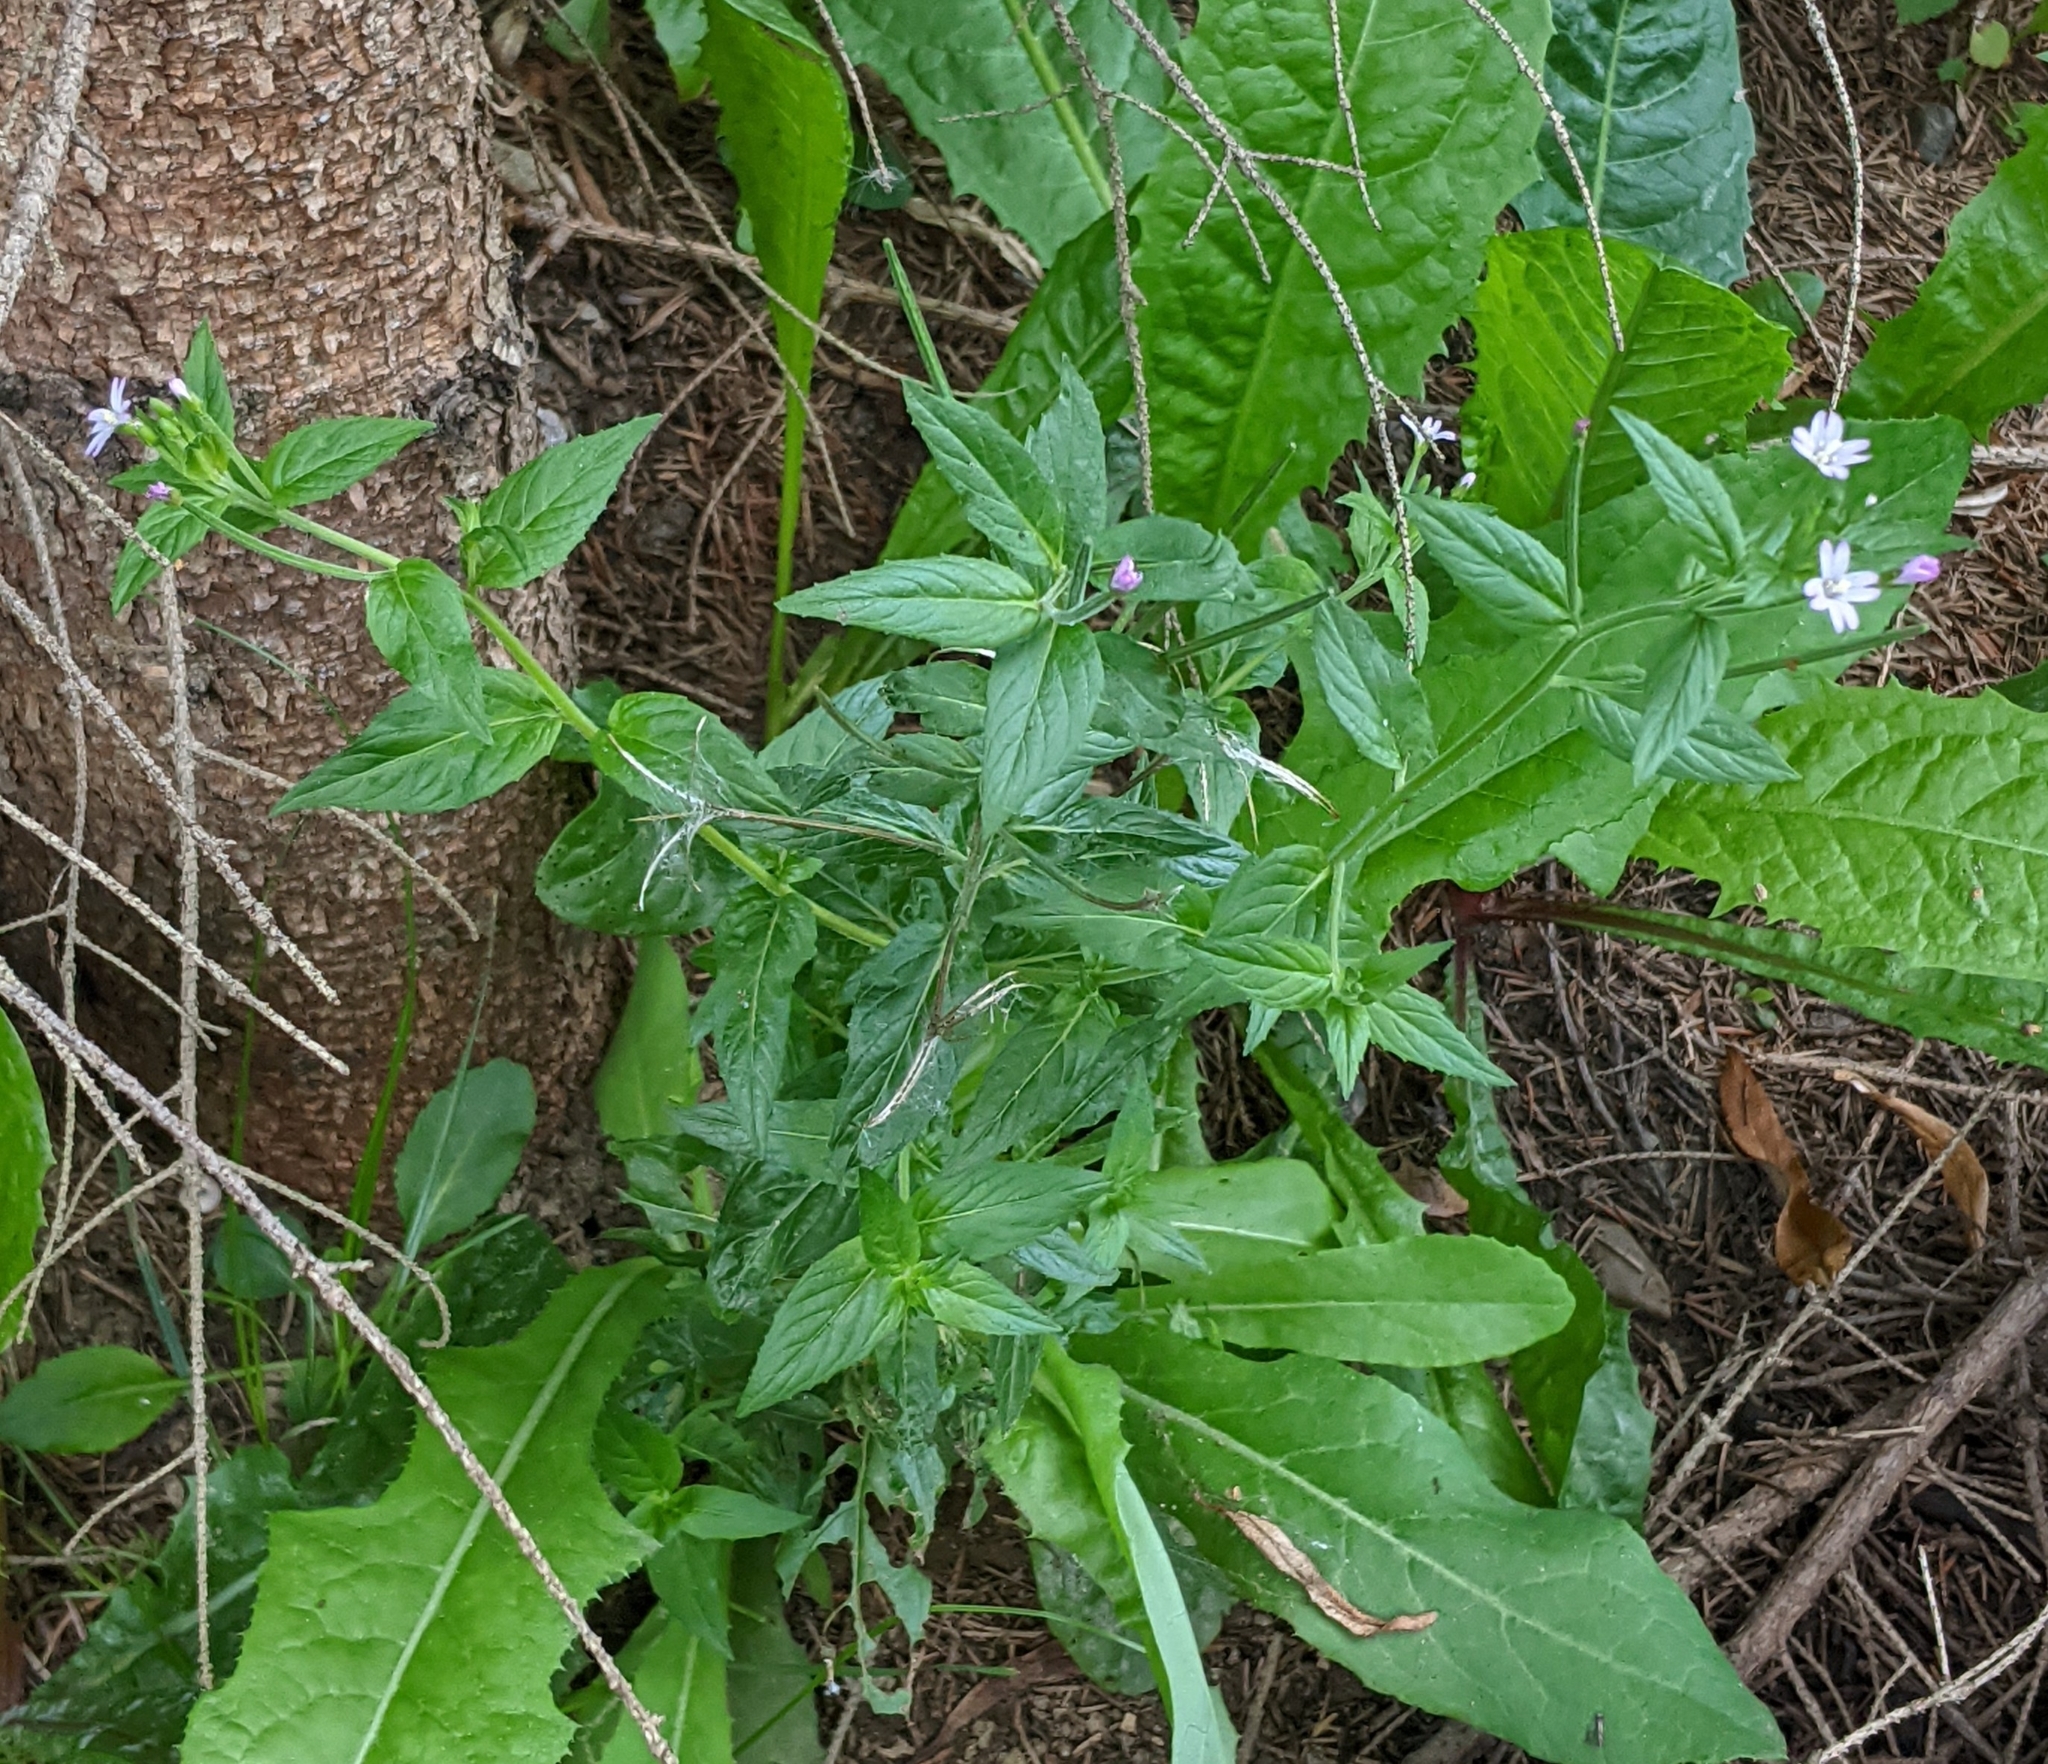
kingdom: Plantae
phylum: Tracheophyta
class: Magnoliopsida
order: Myrtales
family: Onagraceae
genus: Epilobium
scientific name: Epilobium ciliatum
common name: American willowherb
